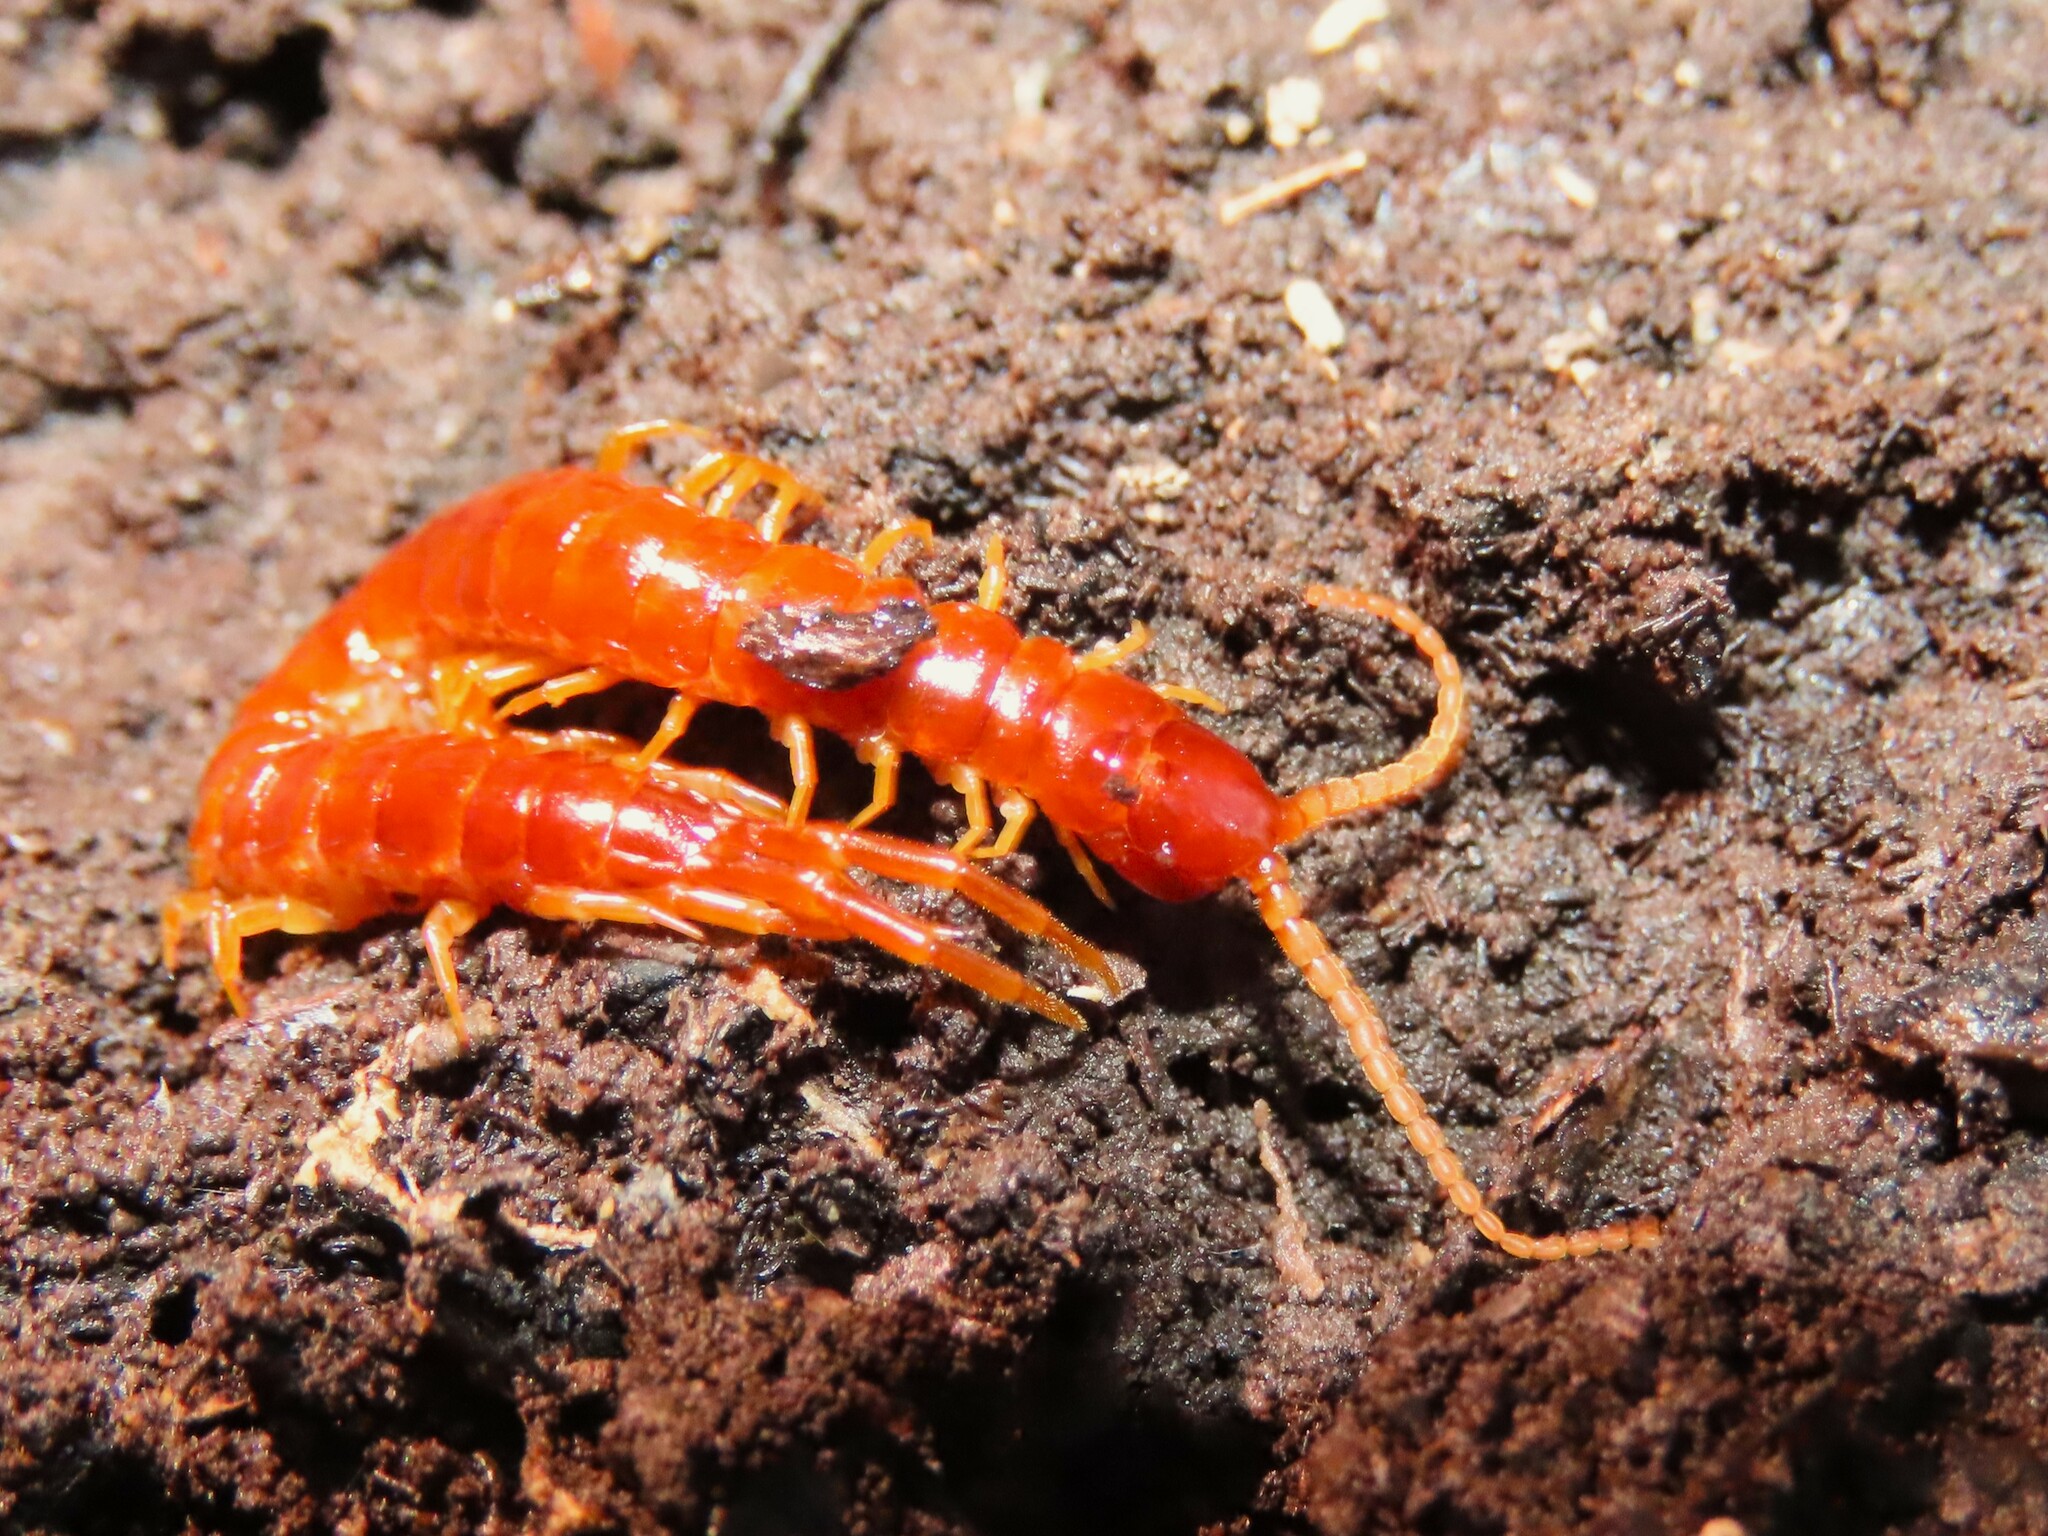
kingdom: Animalia
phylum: Arthropoda
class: Chilopoda
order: Scolopendromorpha
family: Scolopocryptopidae
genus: Scolopocryptops
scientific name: Scolopocryptops sexspinosus
